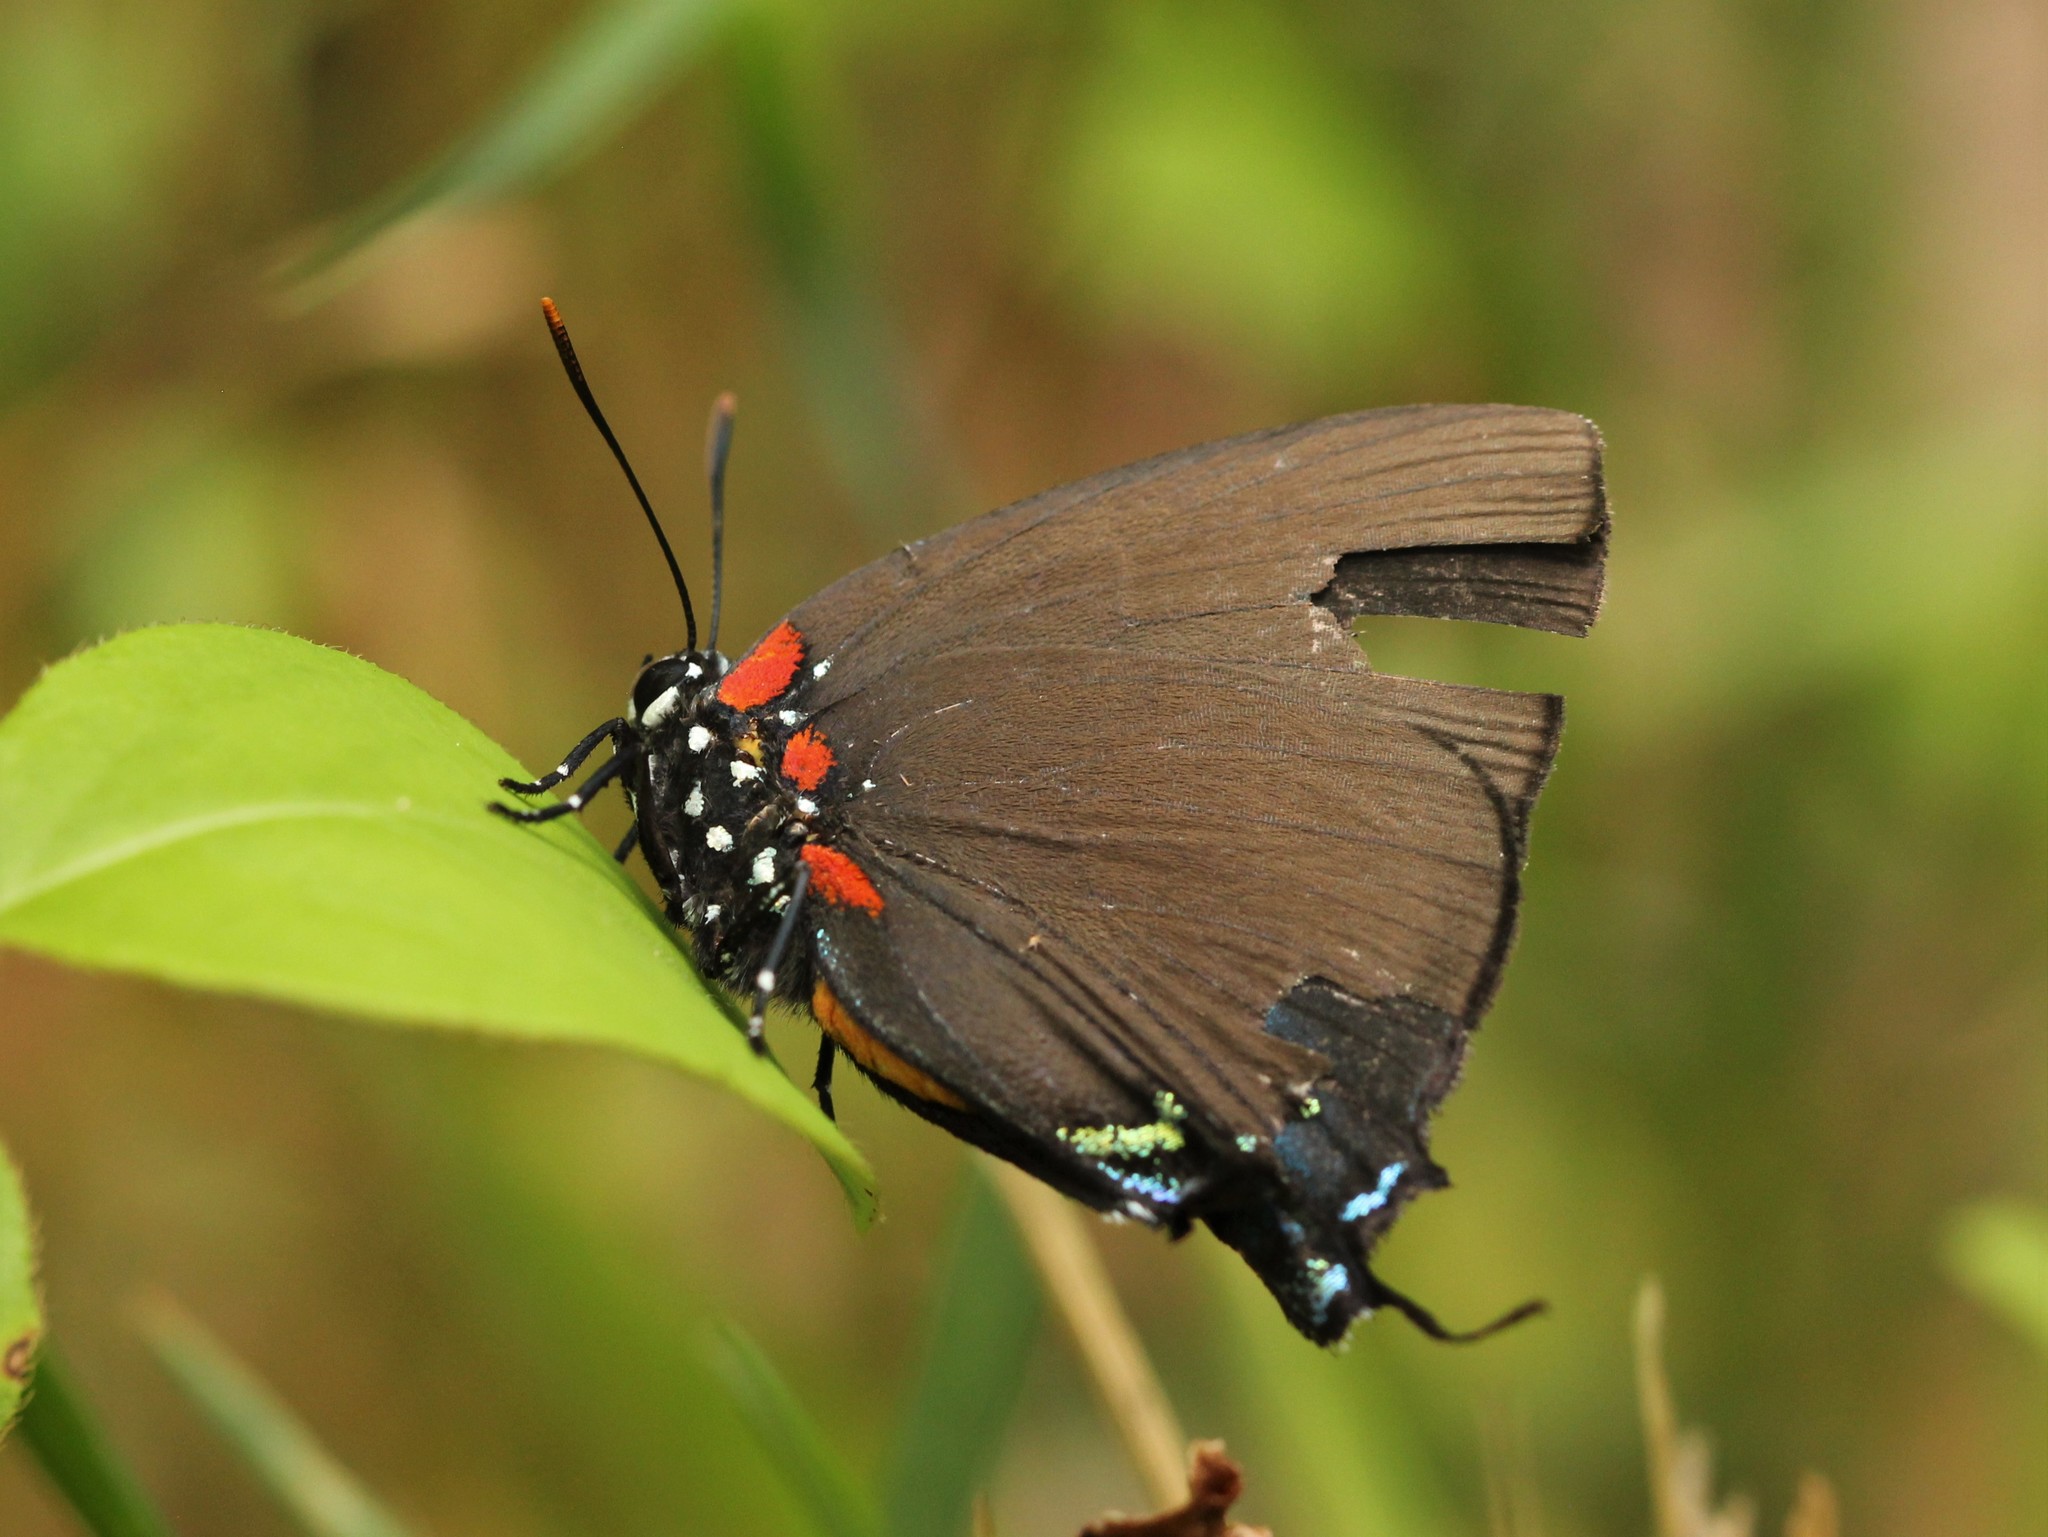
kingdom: Animalia
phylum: Arthropoda
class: Insecta
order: Lepidoptera
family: Lycaenidae
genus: Atlides
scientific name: Atlides halesus
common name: Great purple hairstreak
